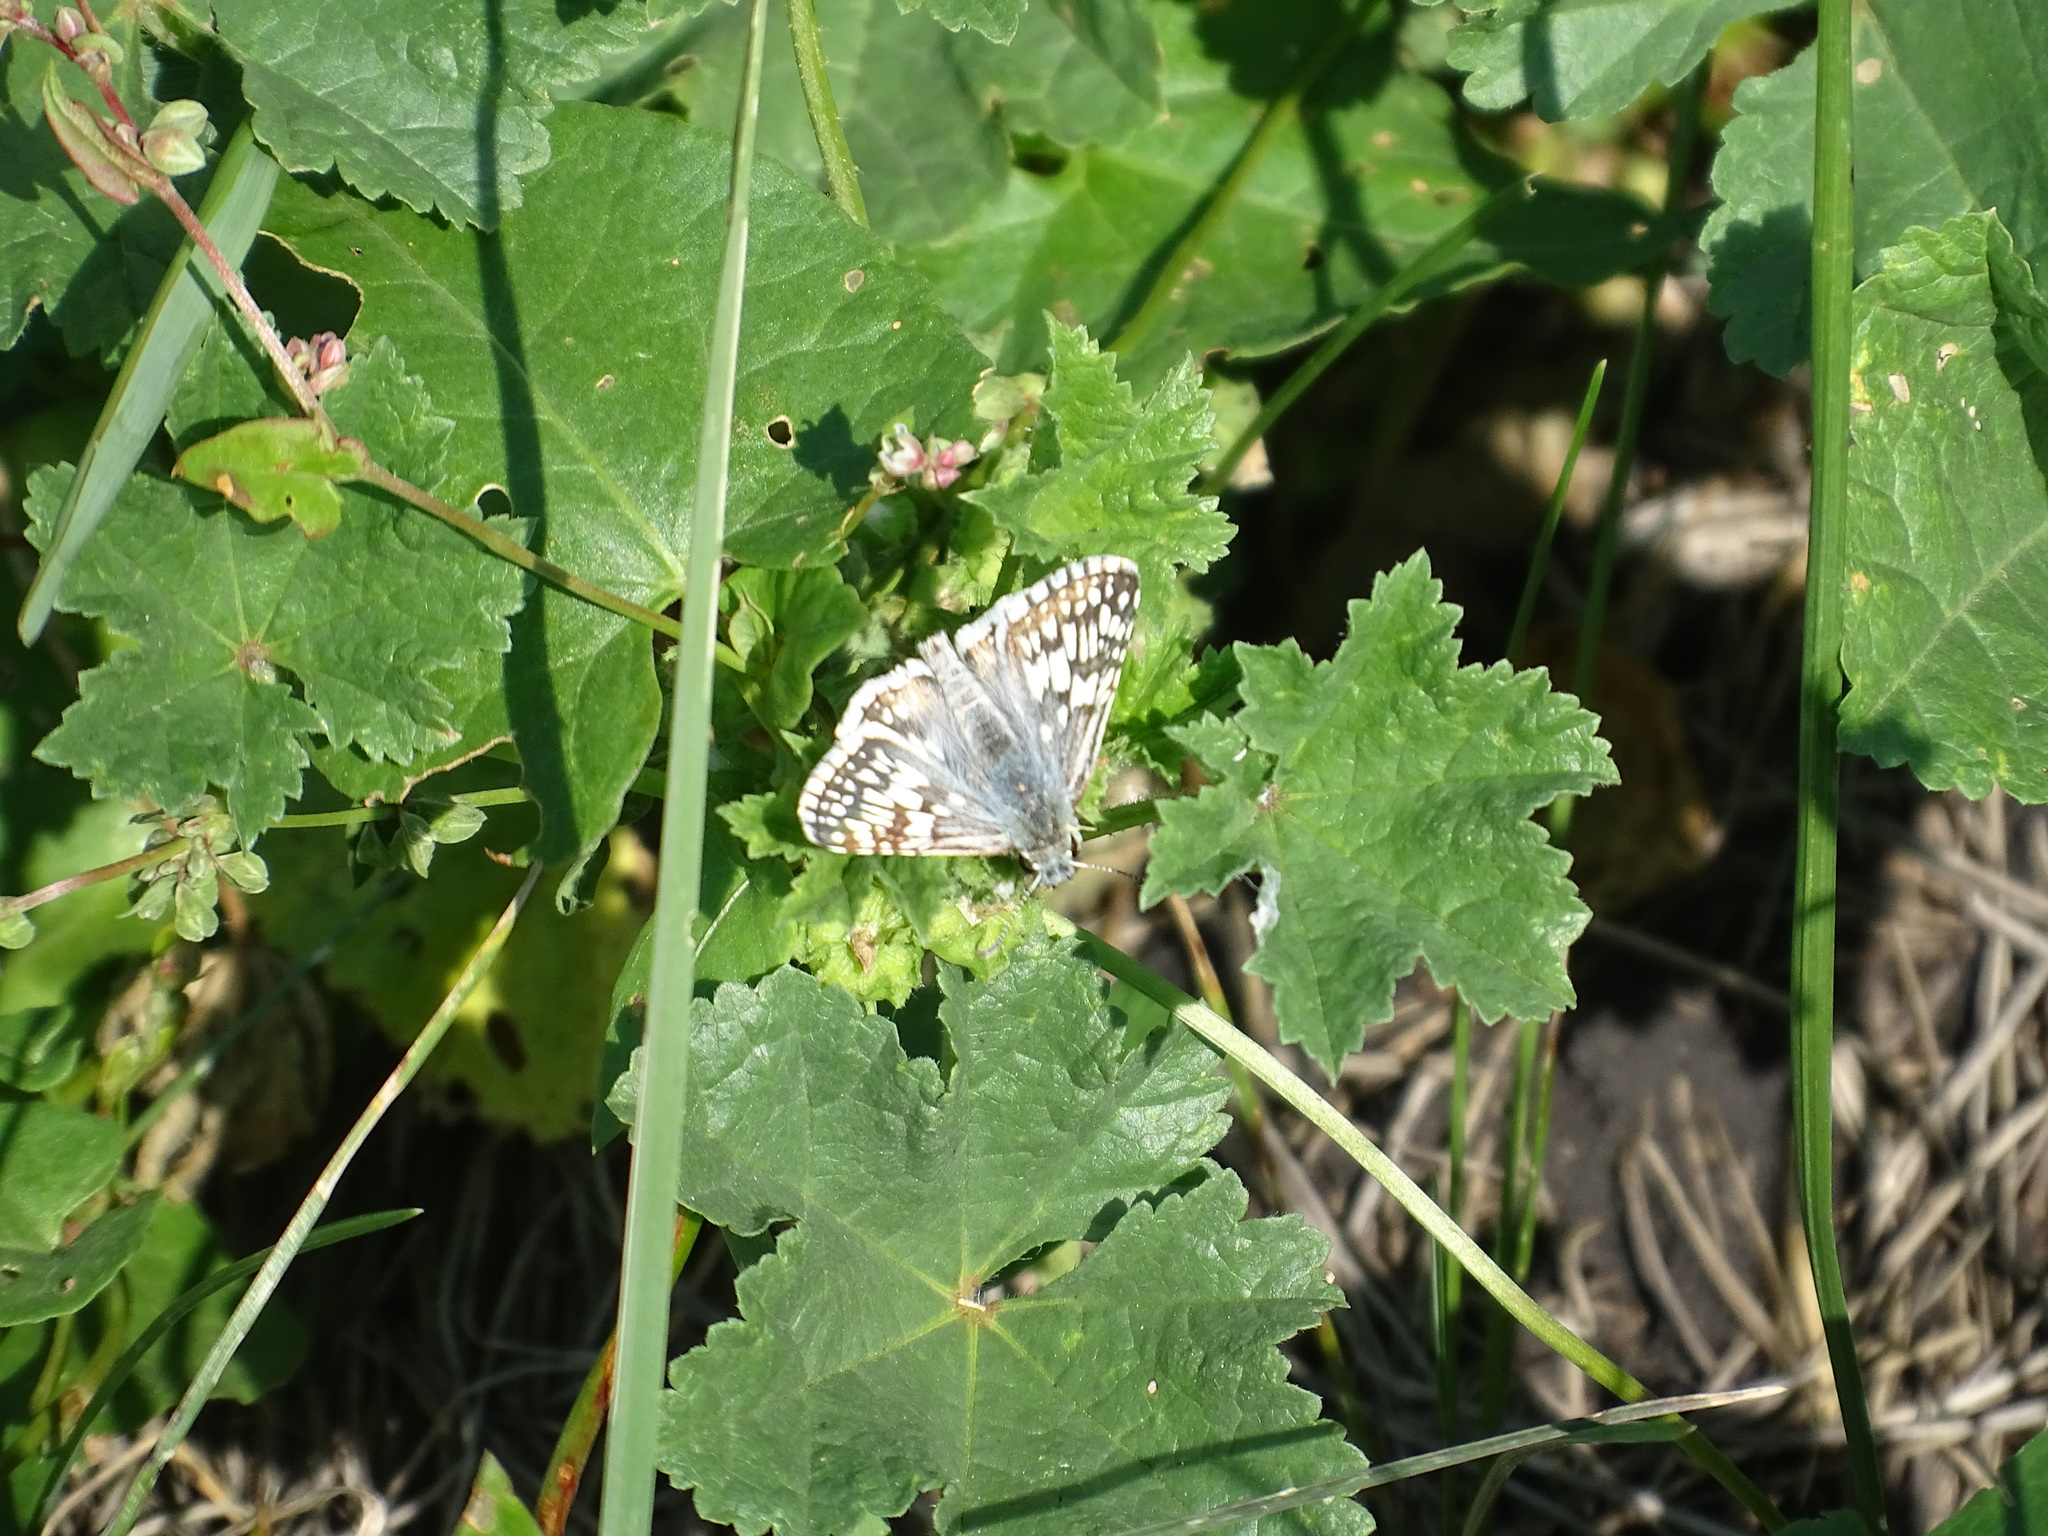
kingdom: Animalia
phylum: Arthropoda
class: Insecta
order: Lepidoptera
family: Hesperiidae
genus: Burnsius
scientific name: Burnsius communis
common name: Common checkered-skipper
